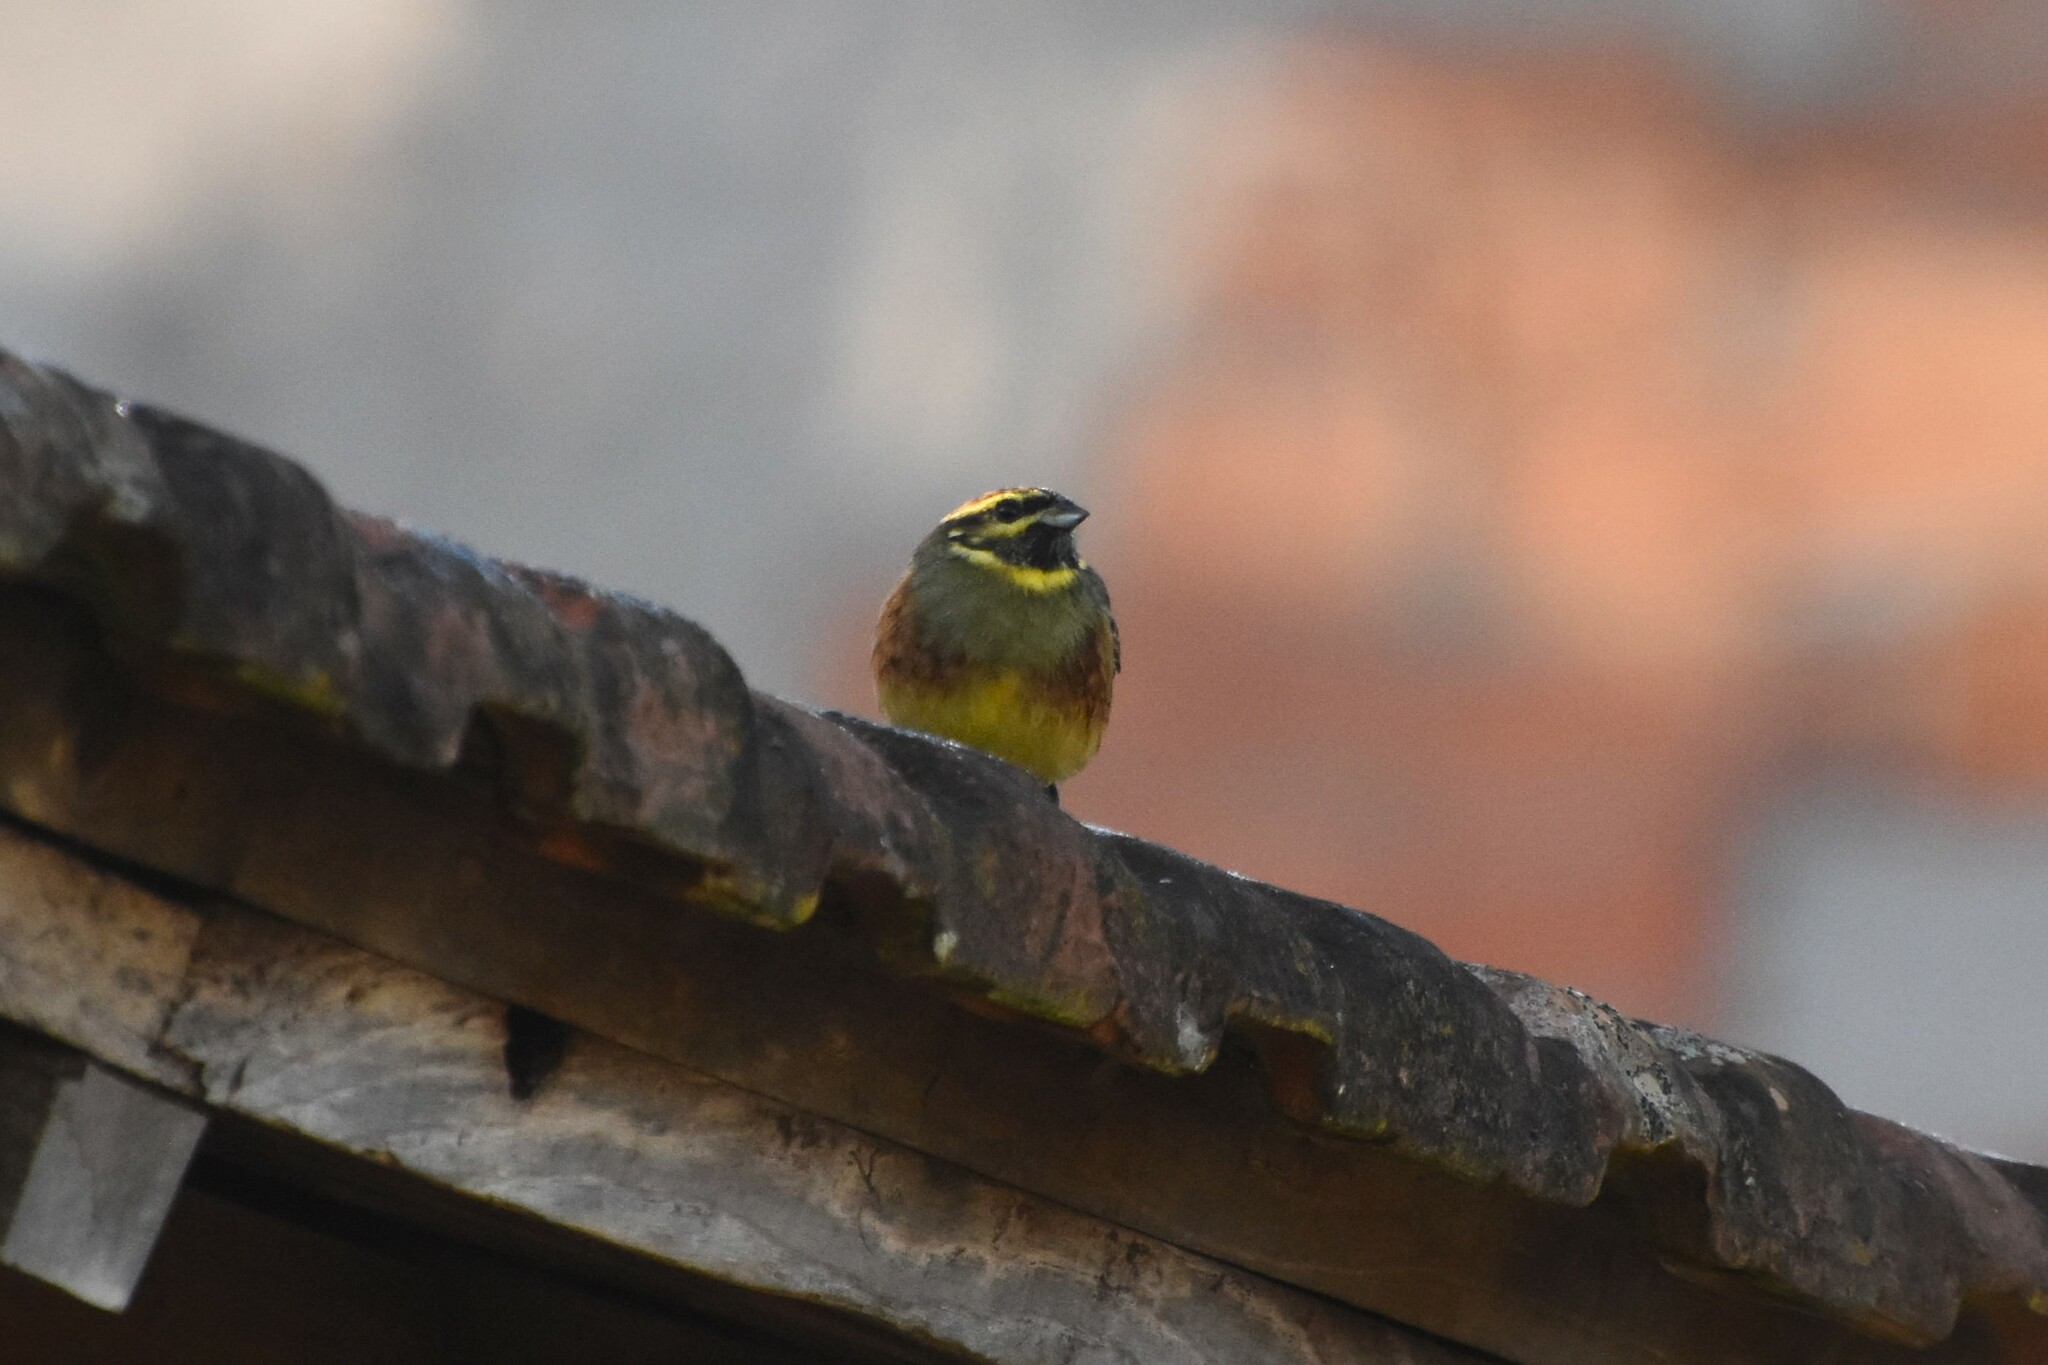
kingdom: Animalia
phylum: Chordata
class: Aves
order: Passeriformes
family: Emberizidae
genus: Emberiza
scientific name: Emberiza cirlus
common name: Cirl bunting
